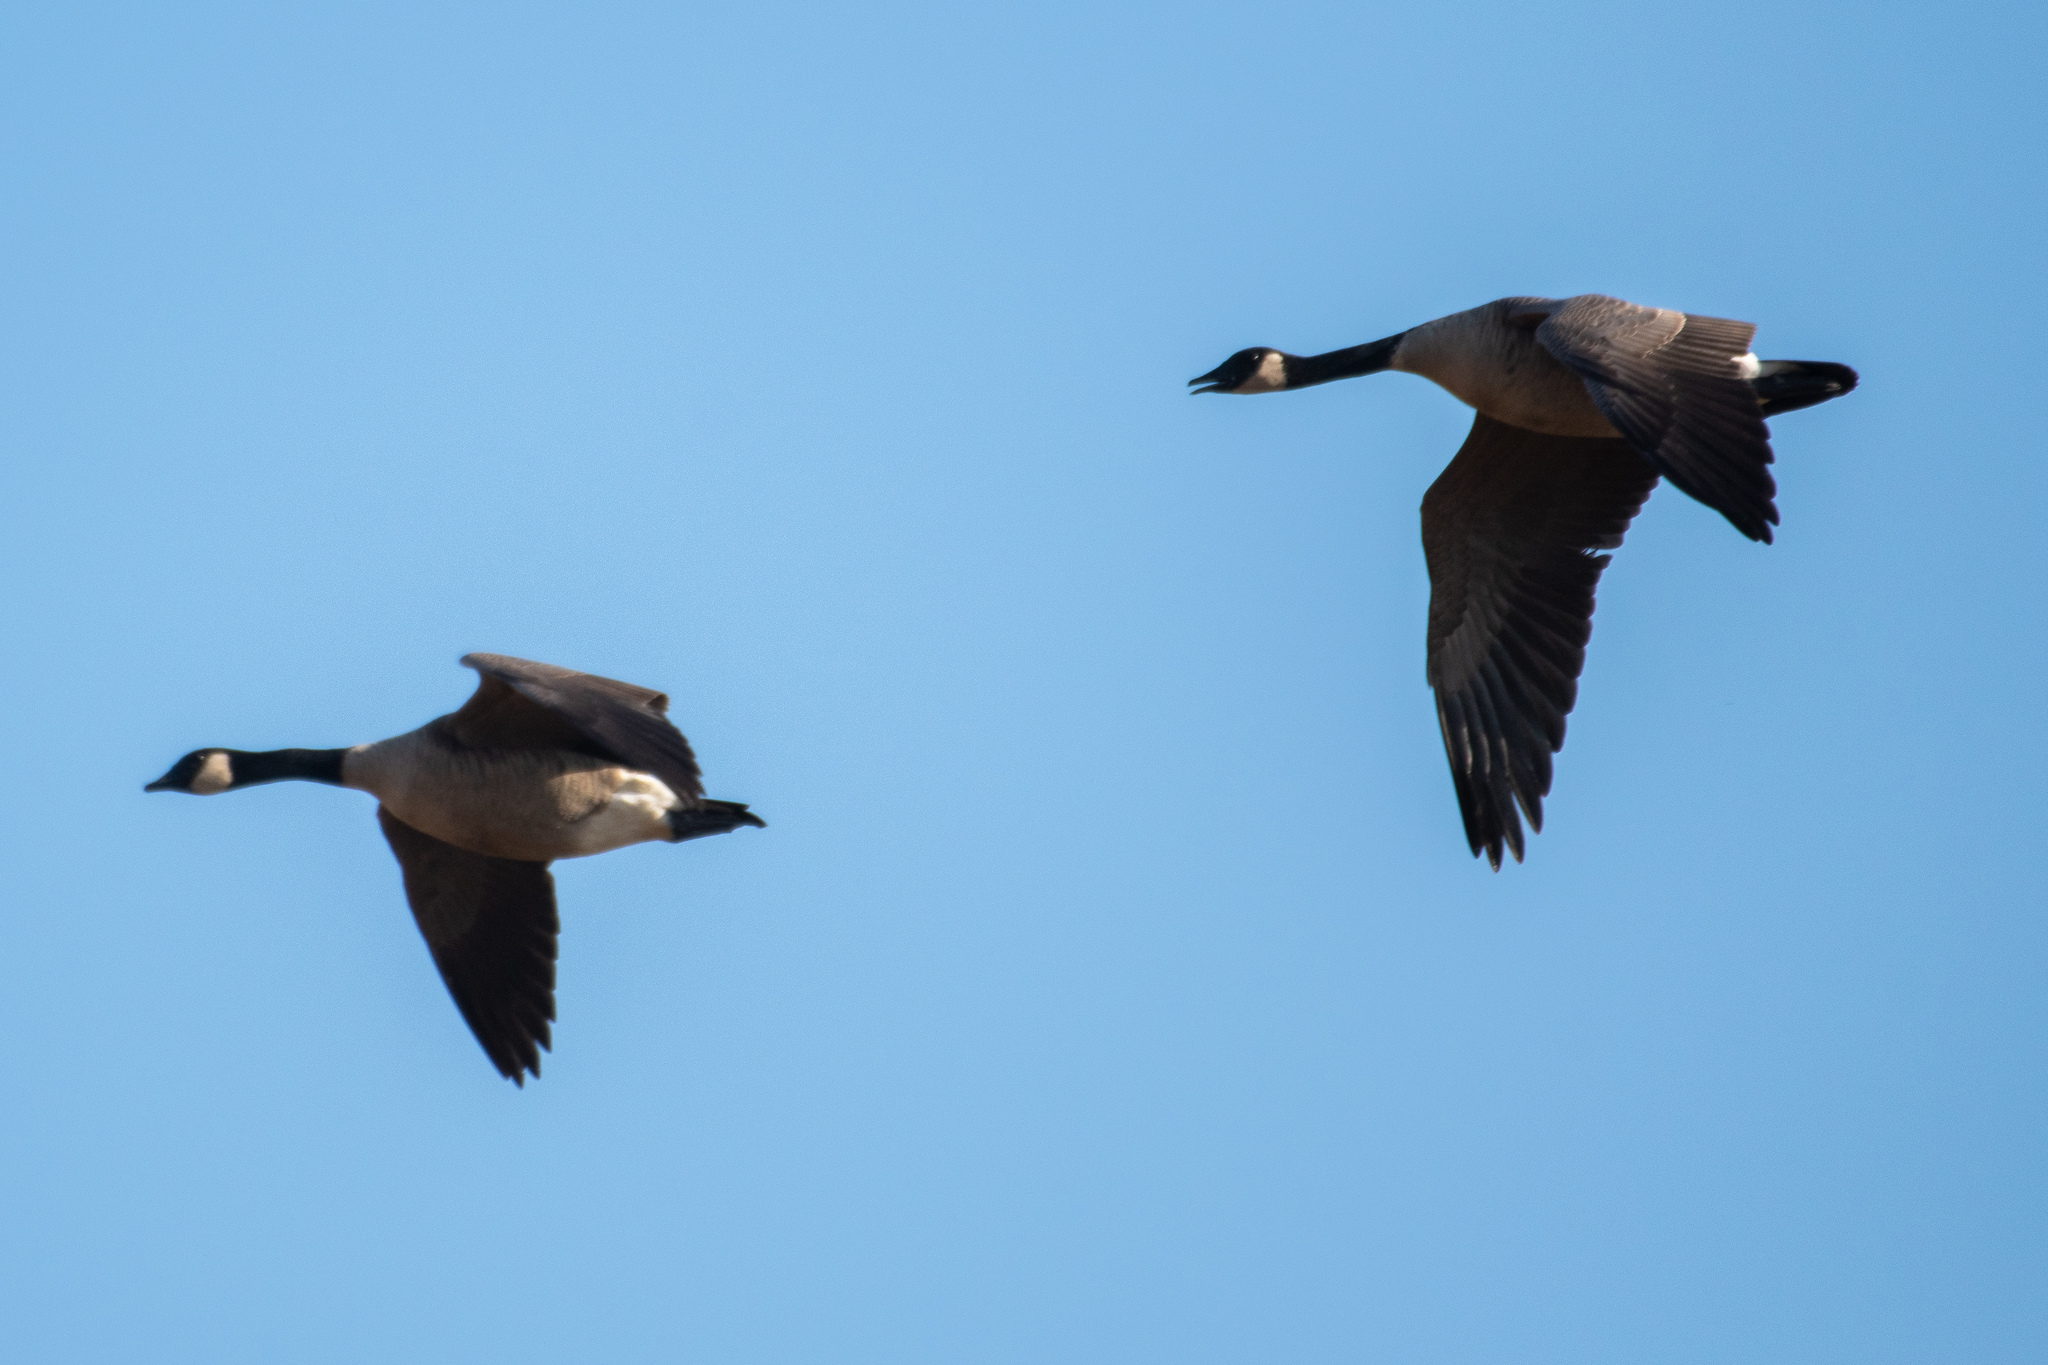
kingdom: Animalia
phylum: Chordata
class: Aves
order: Anseriformes
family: Anatidae
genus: Branta
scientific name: Branta canadensis
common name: Canada goose
